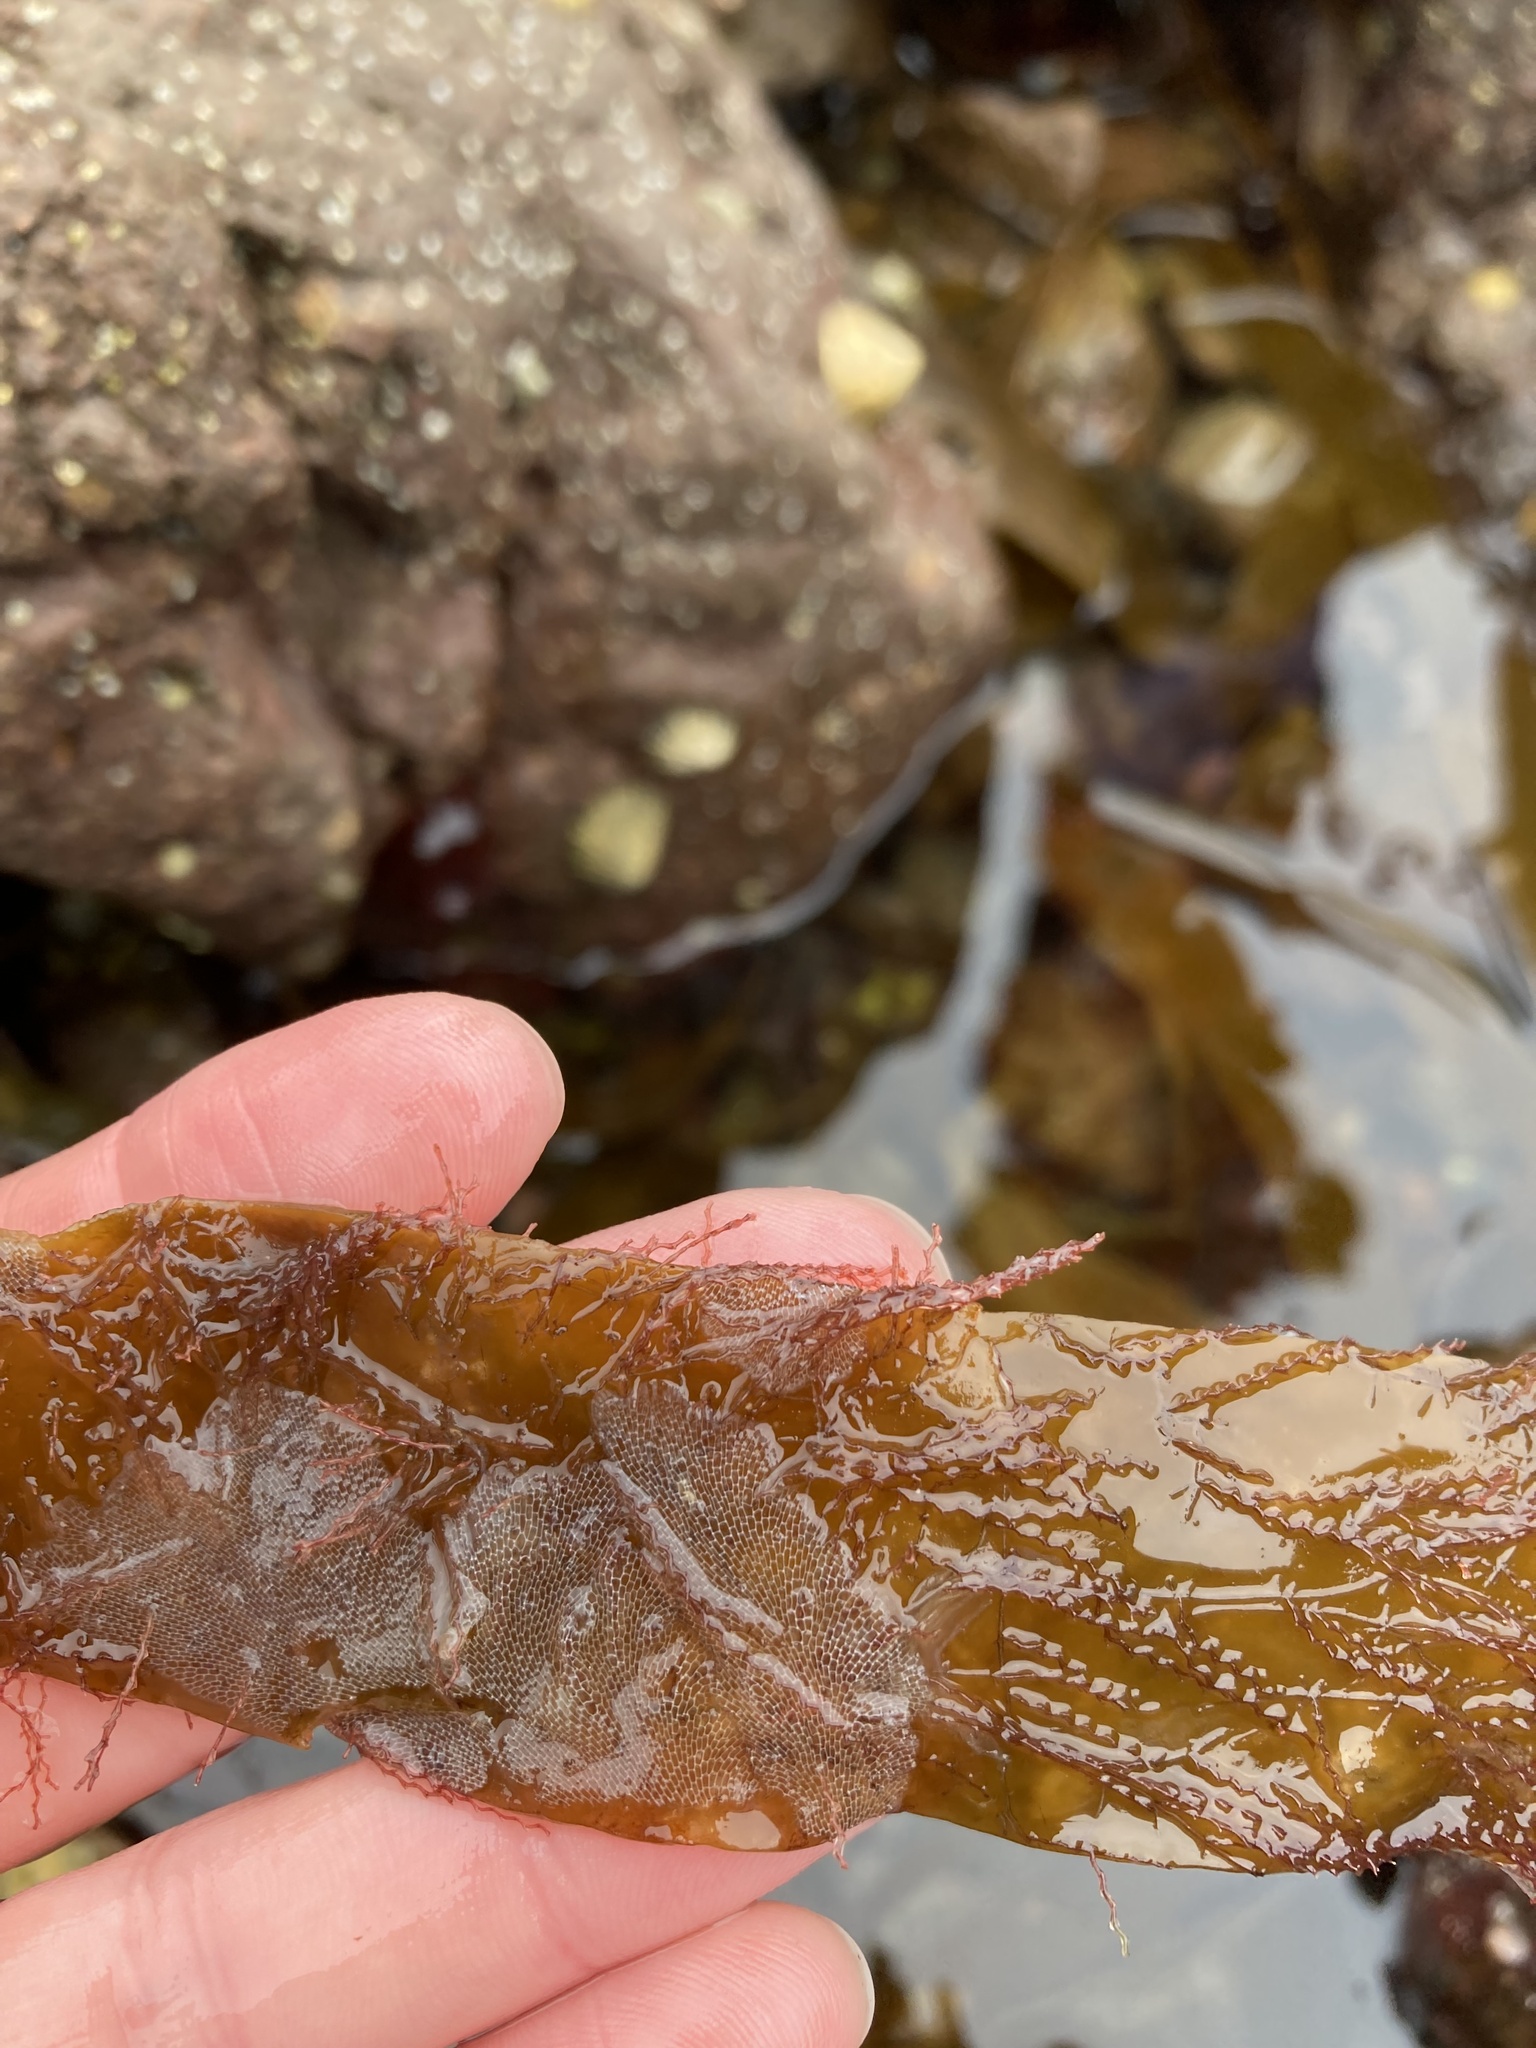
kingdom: Animalia
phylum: Bryozoa
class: Gymnolaemata
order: Cheilostomatida
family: Membraniporidae
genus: Membranipora
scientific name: Membranipora membranacea
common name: Sea mat
